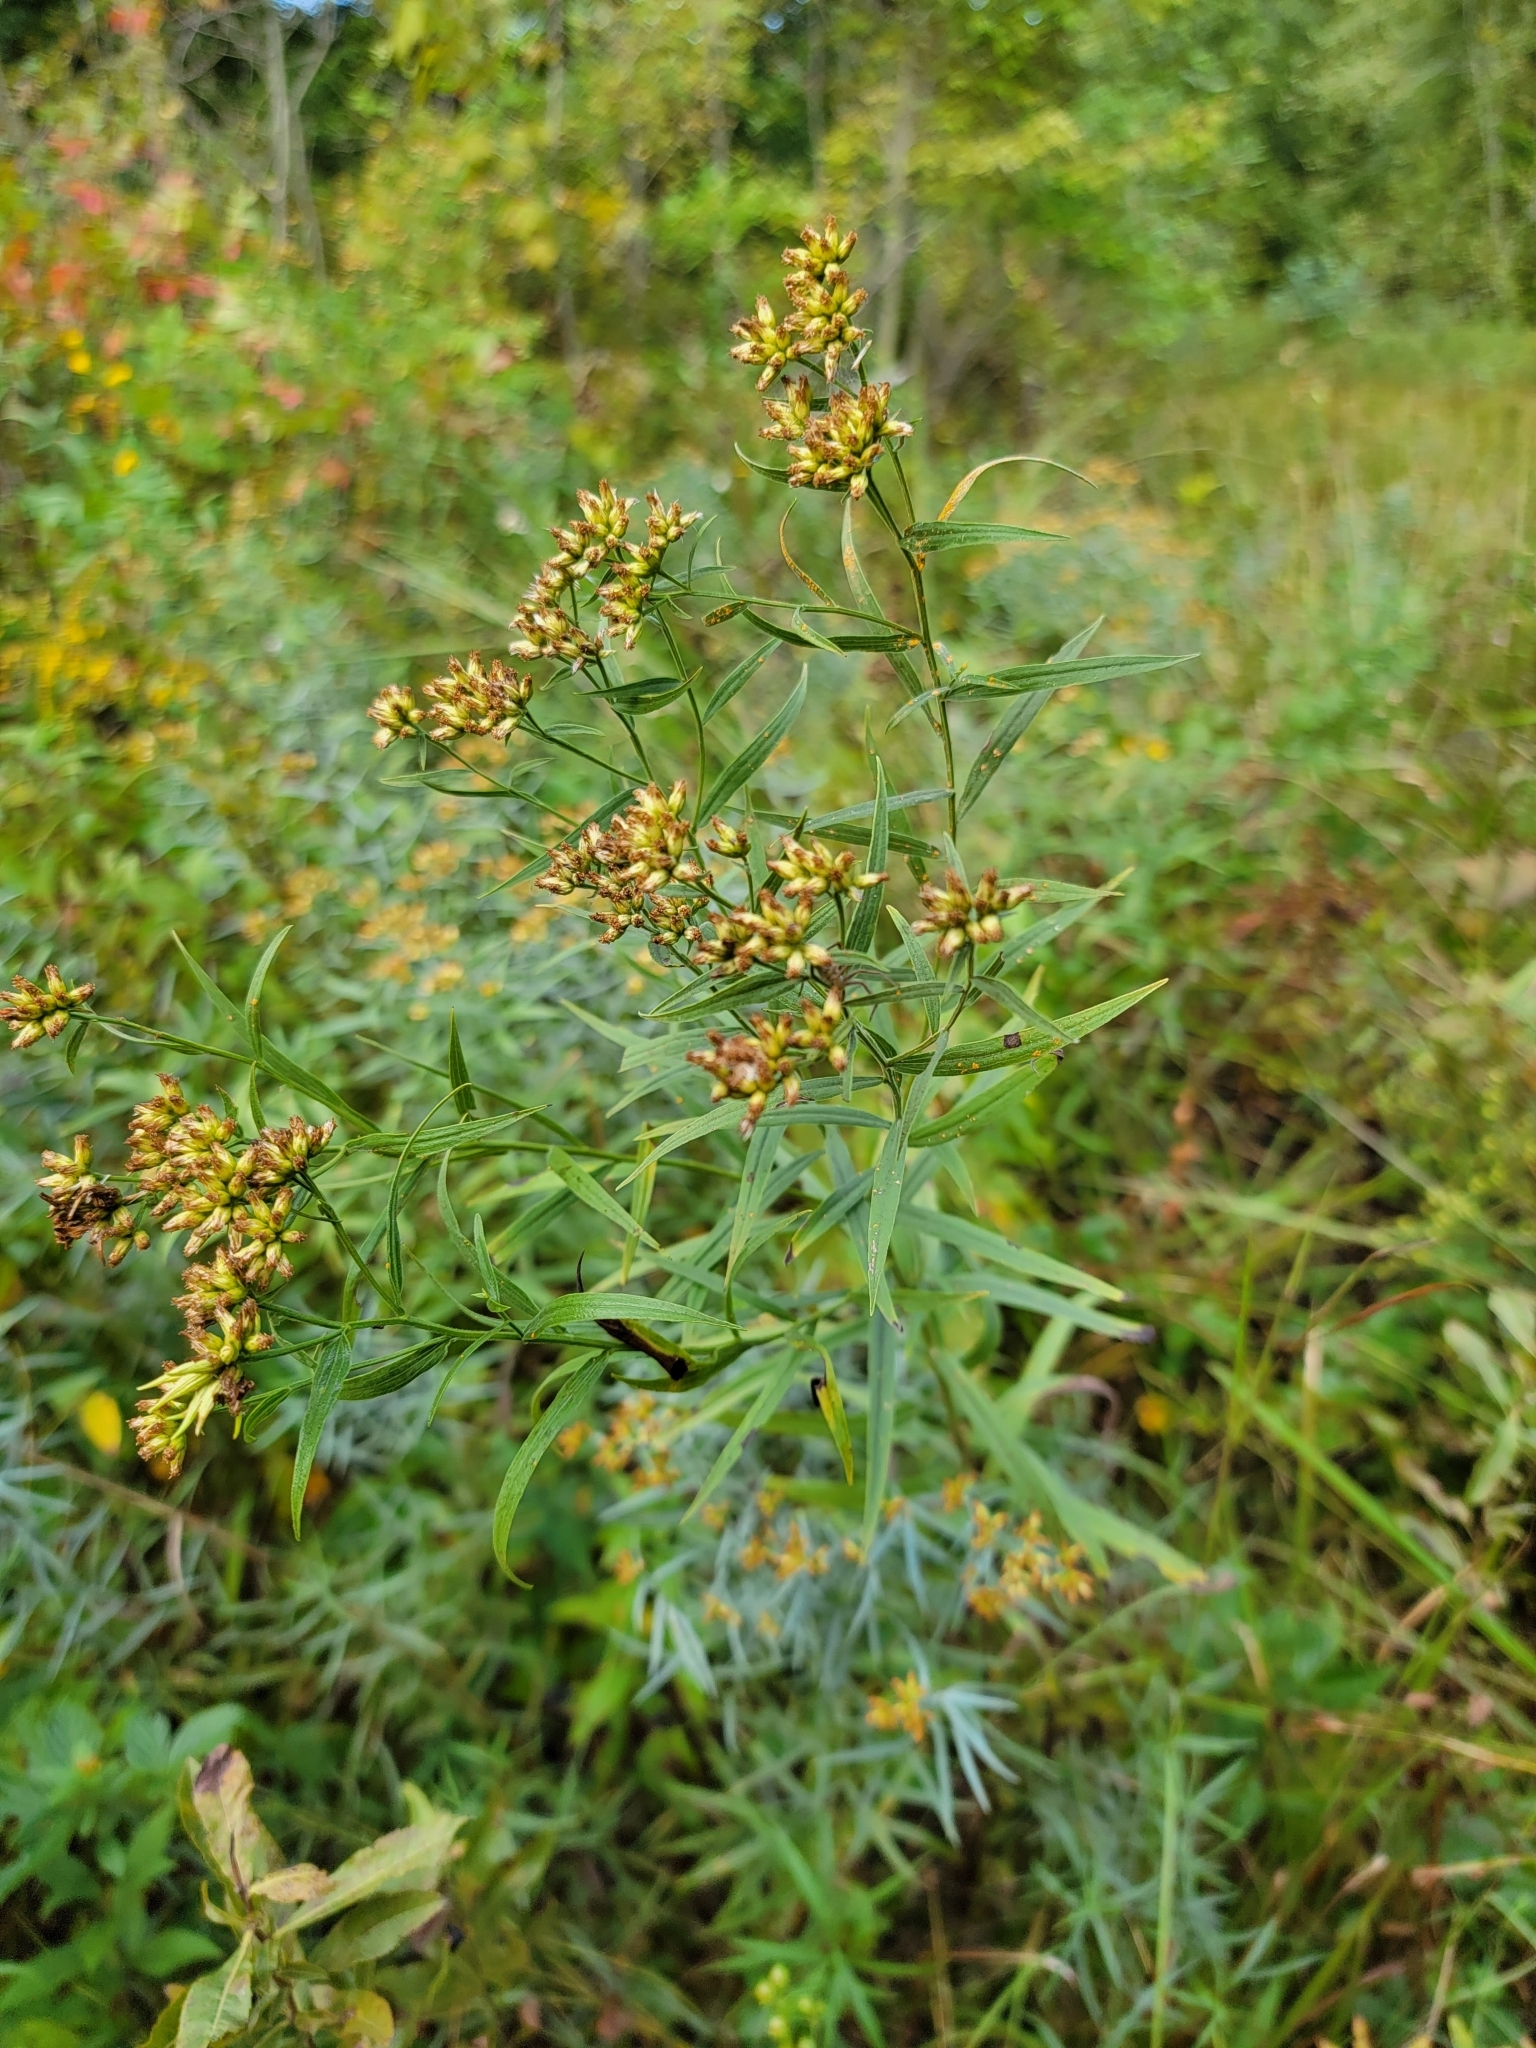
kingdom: Plantae
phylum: Tracheophyta
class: Magnoliopsida
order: Asterales
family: Asteraceae
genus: Euthamia
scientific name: Euthamia graminifolia
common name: Common goldentop
